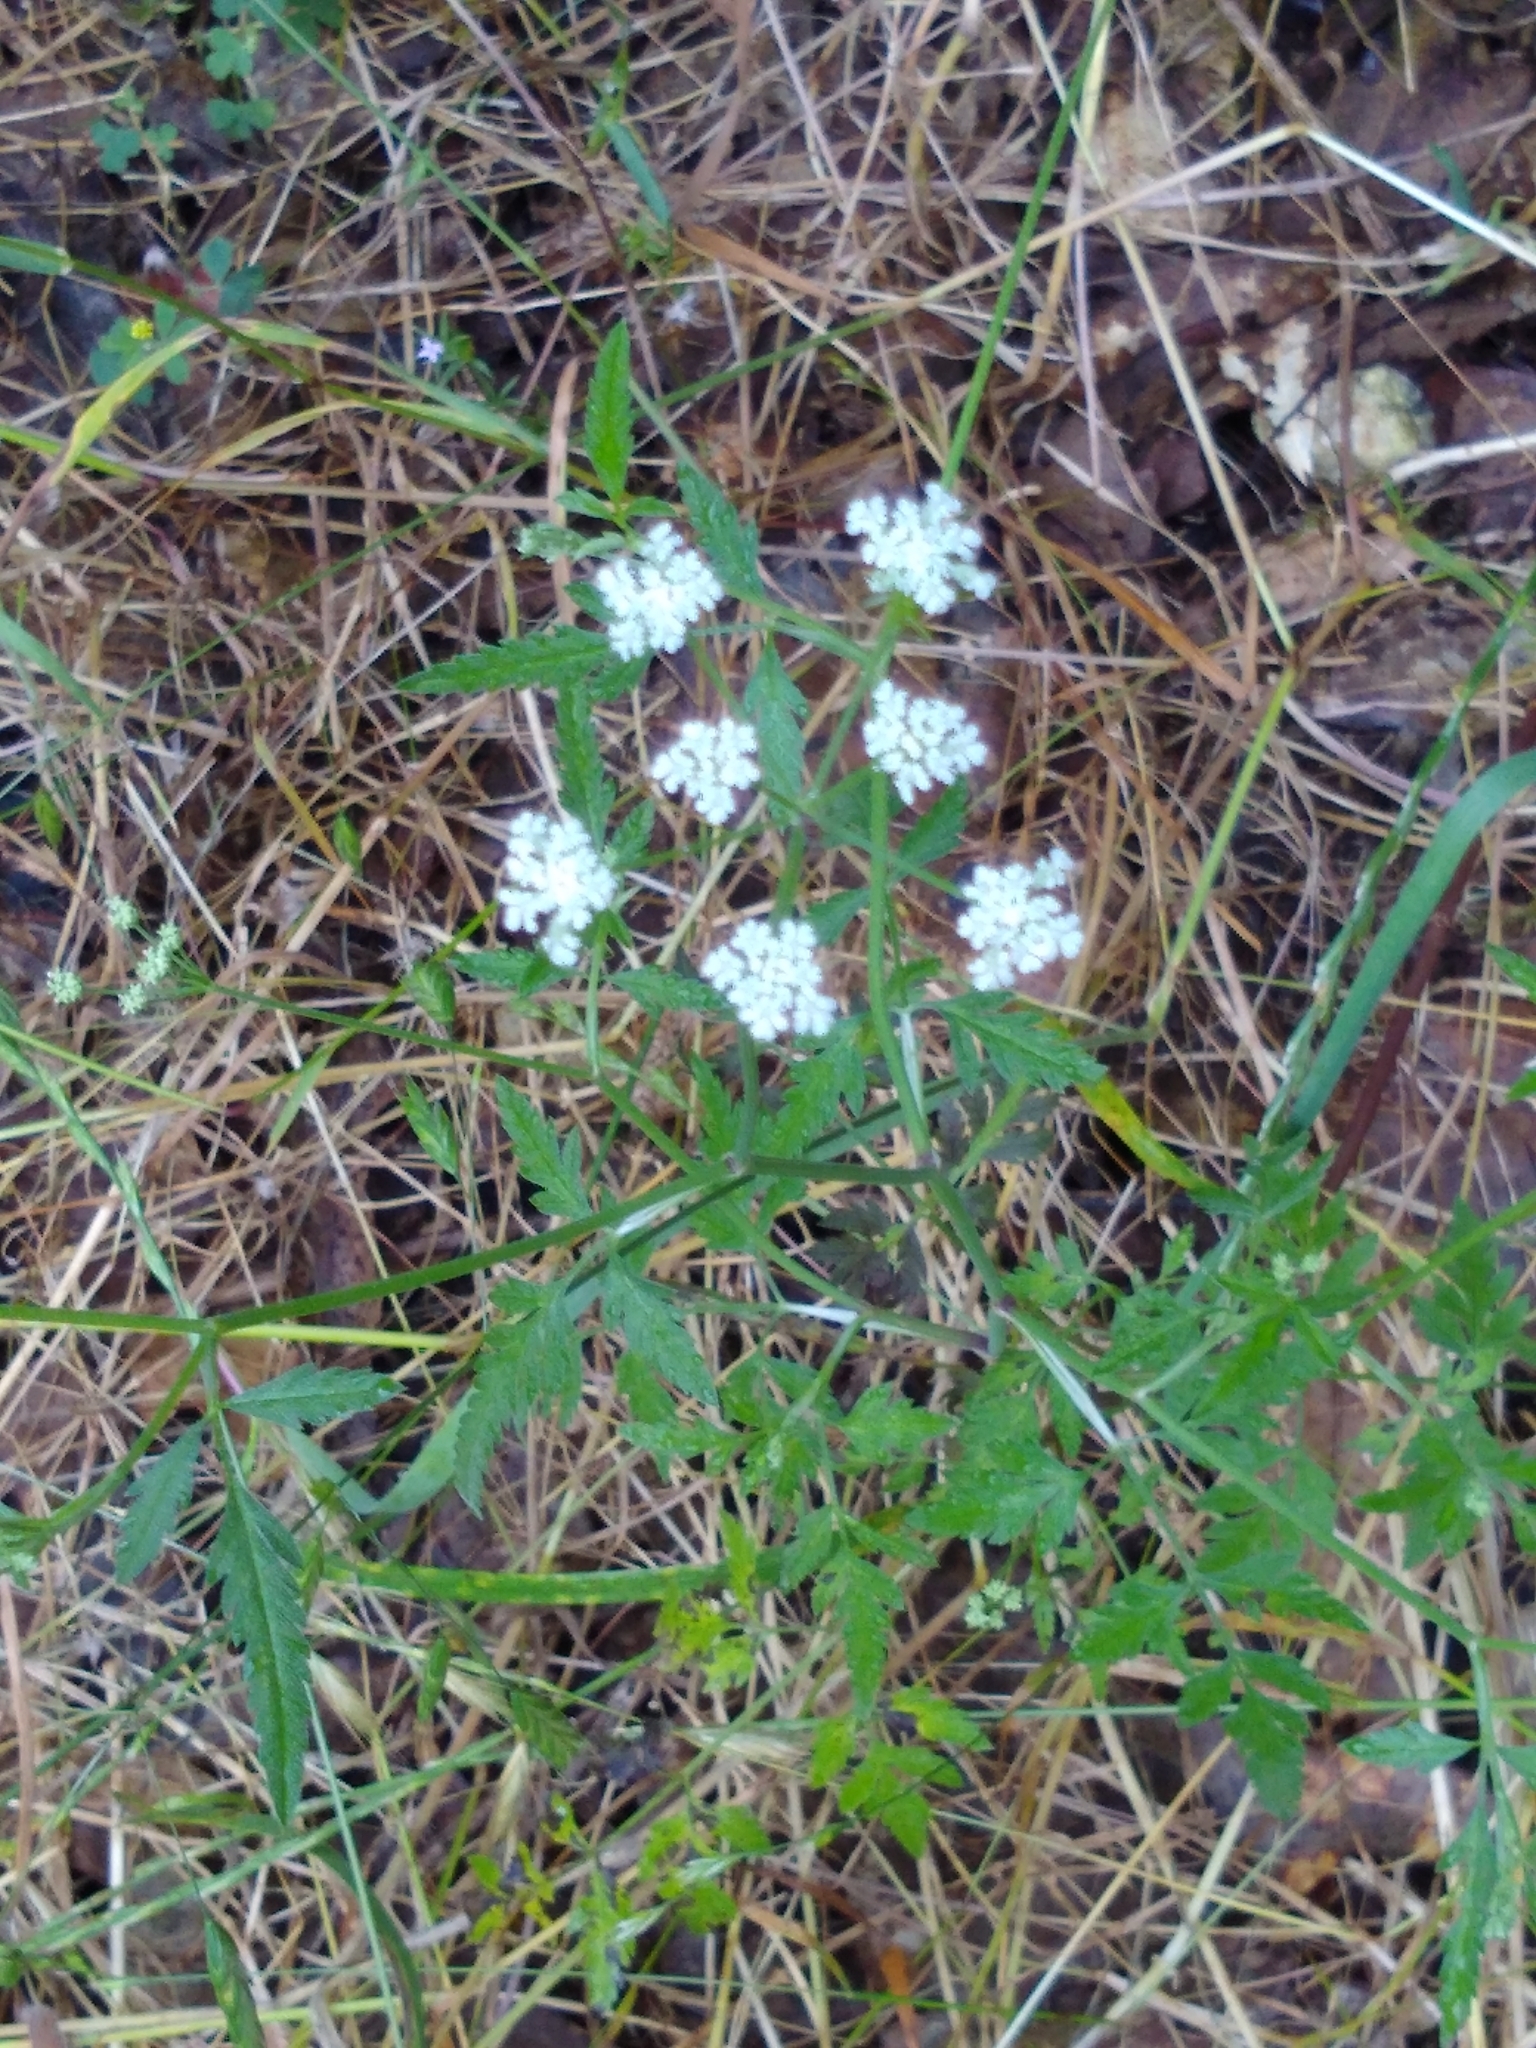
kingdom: Plantae
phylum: Tracheophyta
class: Magnoliopsida
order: Apiales
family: Apiaceae
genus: Torilis
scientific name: Torilis arvensis
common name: Spreading hedge-parsley
